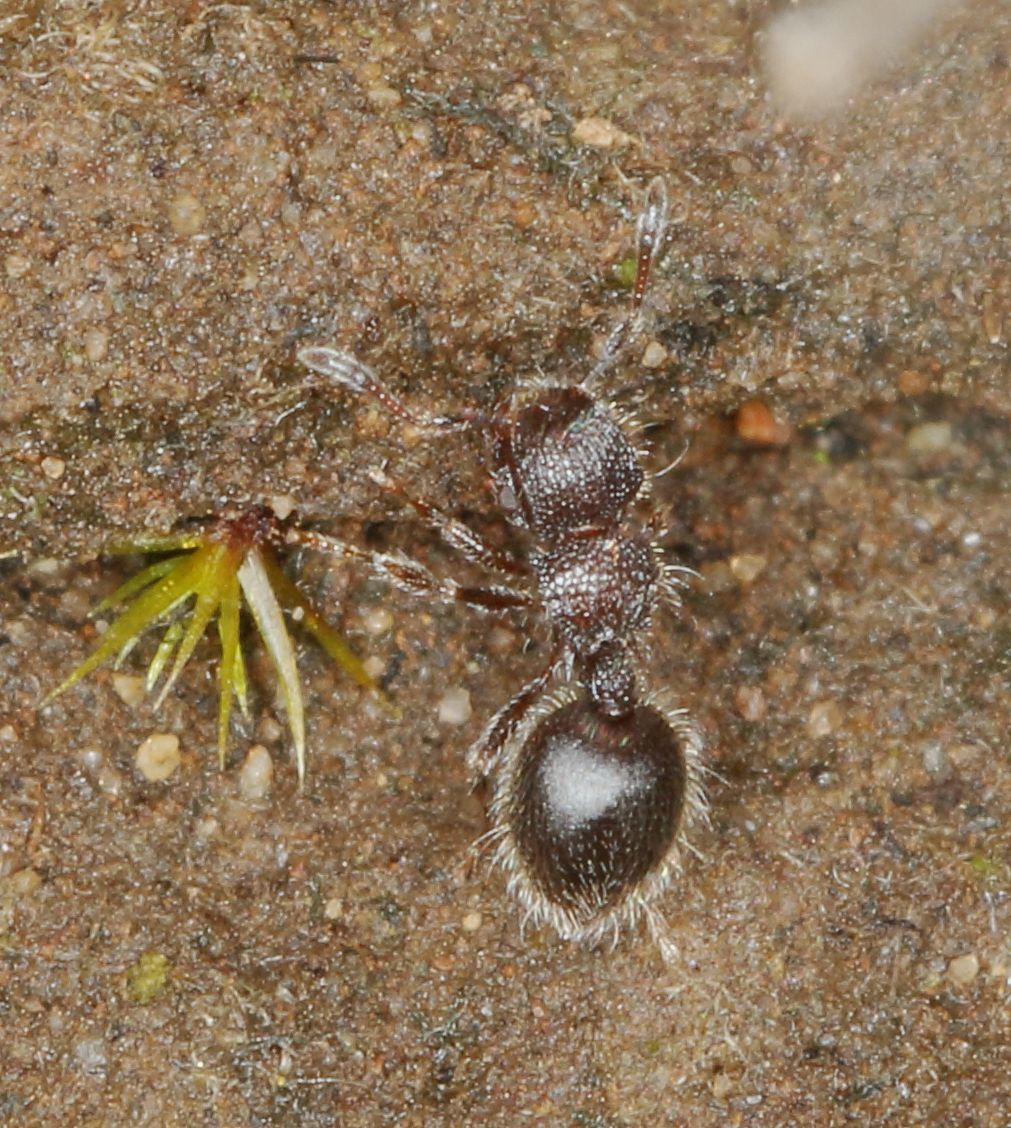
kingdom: Animalia
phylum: Arthropoda
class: Insecta
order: Hymenoptera
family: Formicidae
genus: Meranoplus
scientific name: Meranoplus peringueyi
